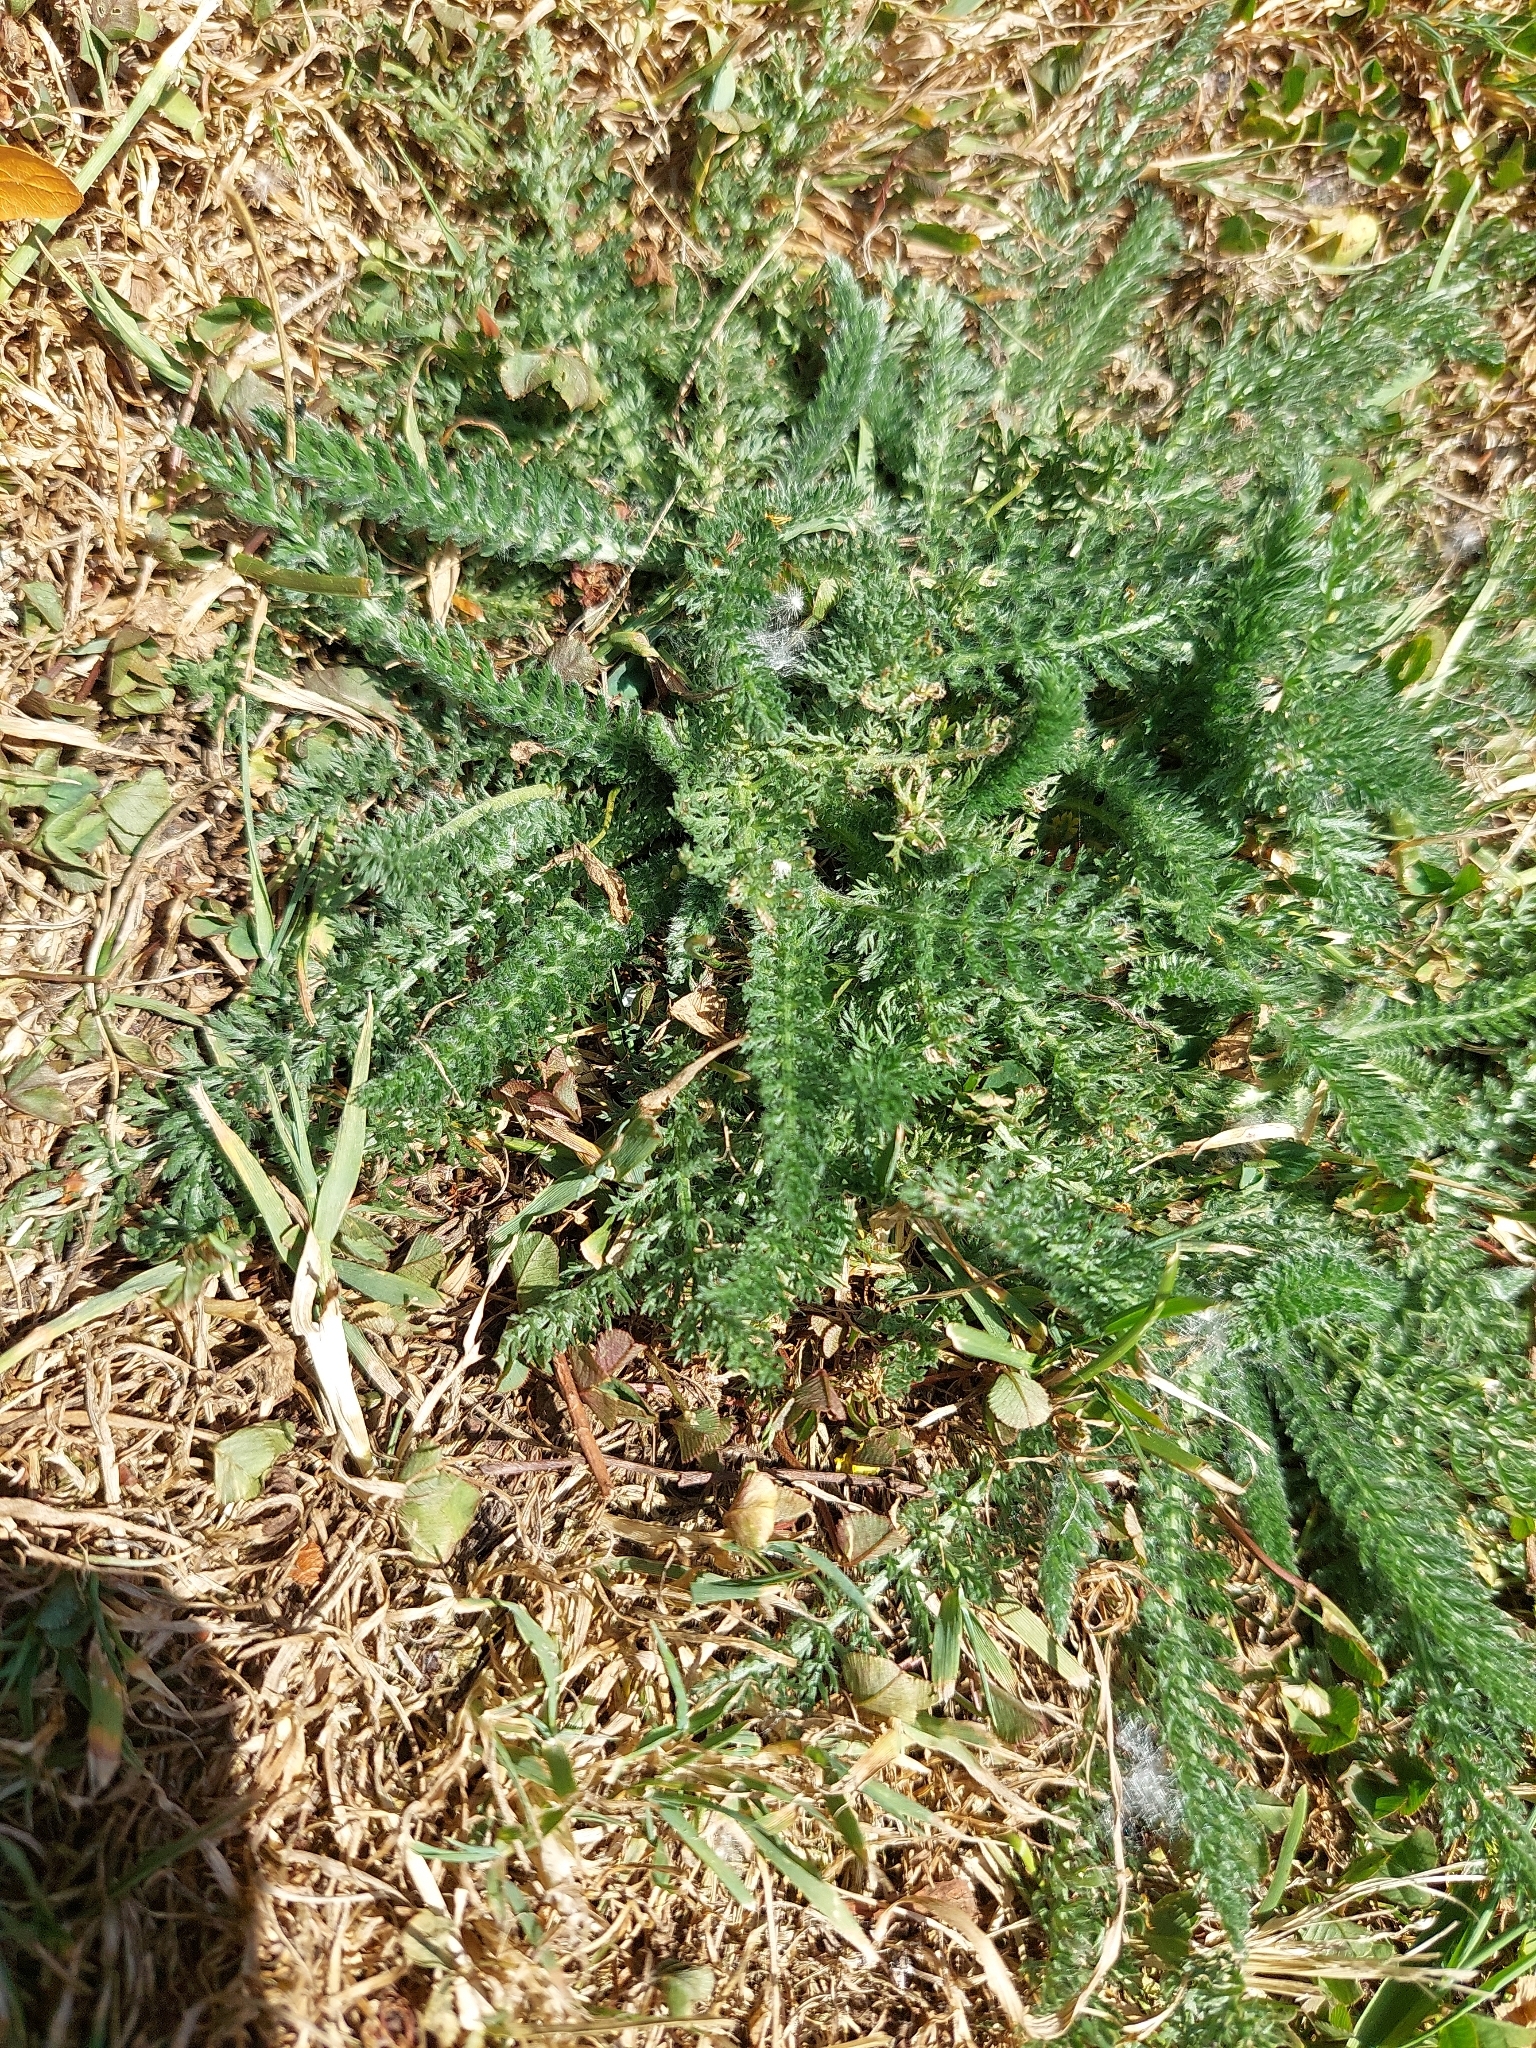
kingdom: Plantae
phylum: Tracheophyta
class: Magnoliopsida
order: Asterales
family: Asteraceae
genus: Achillea
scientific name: Achillea millefolium
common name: Yarrow
